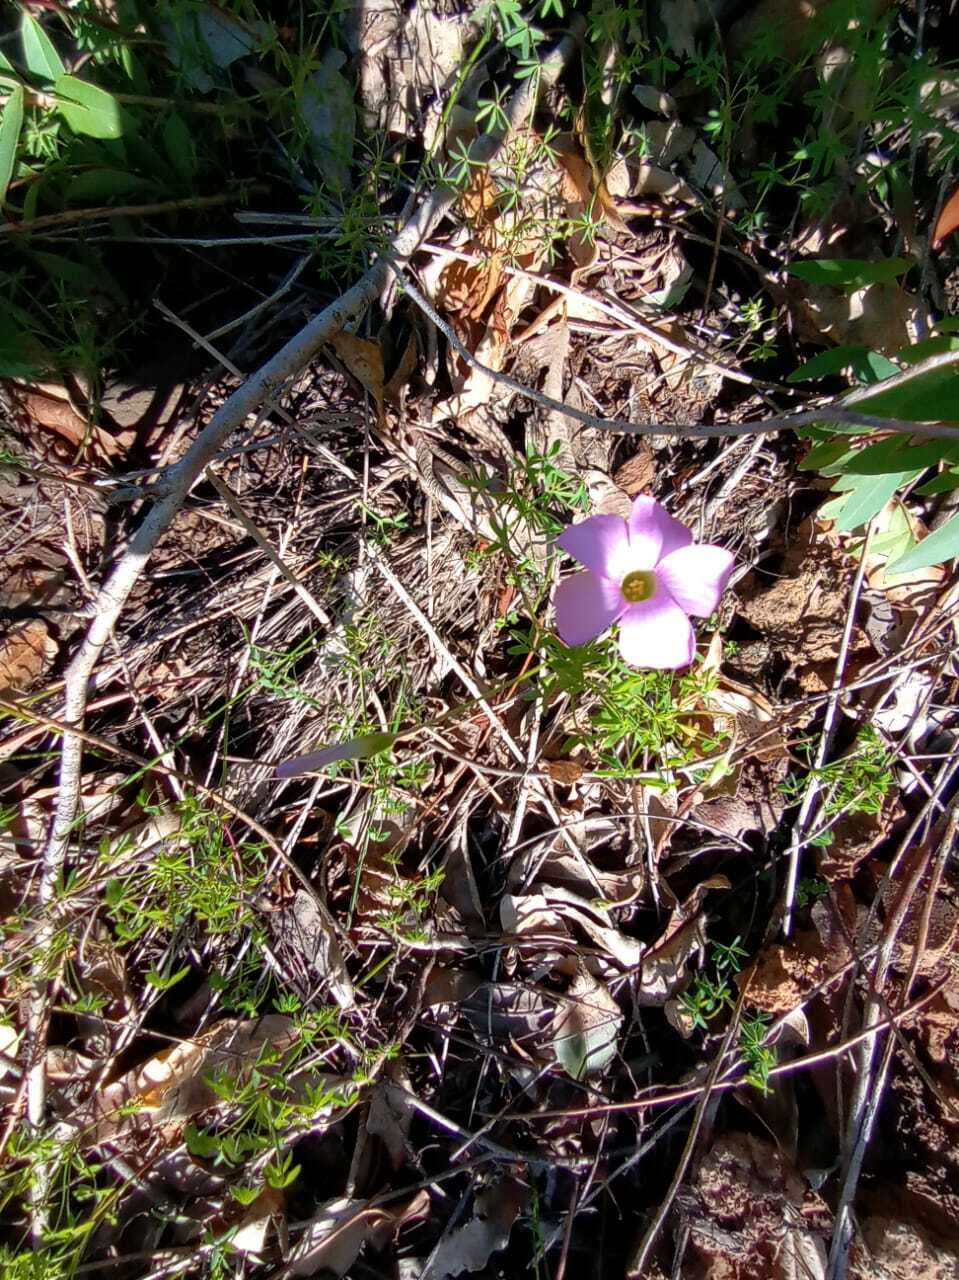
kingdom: Plantae
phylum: Tracheophyta
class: Magnoliopsida
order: Oxalidales
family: Oxalidaceae
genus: Oxalis
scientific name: Oxalis bifida
